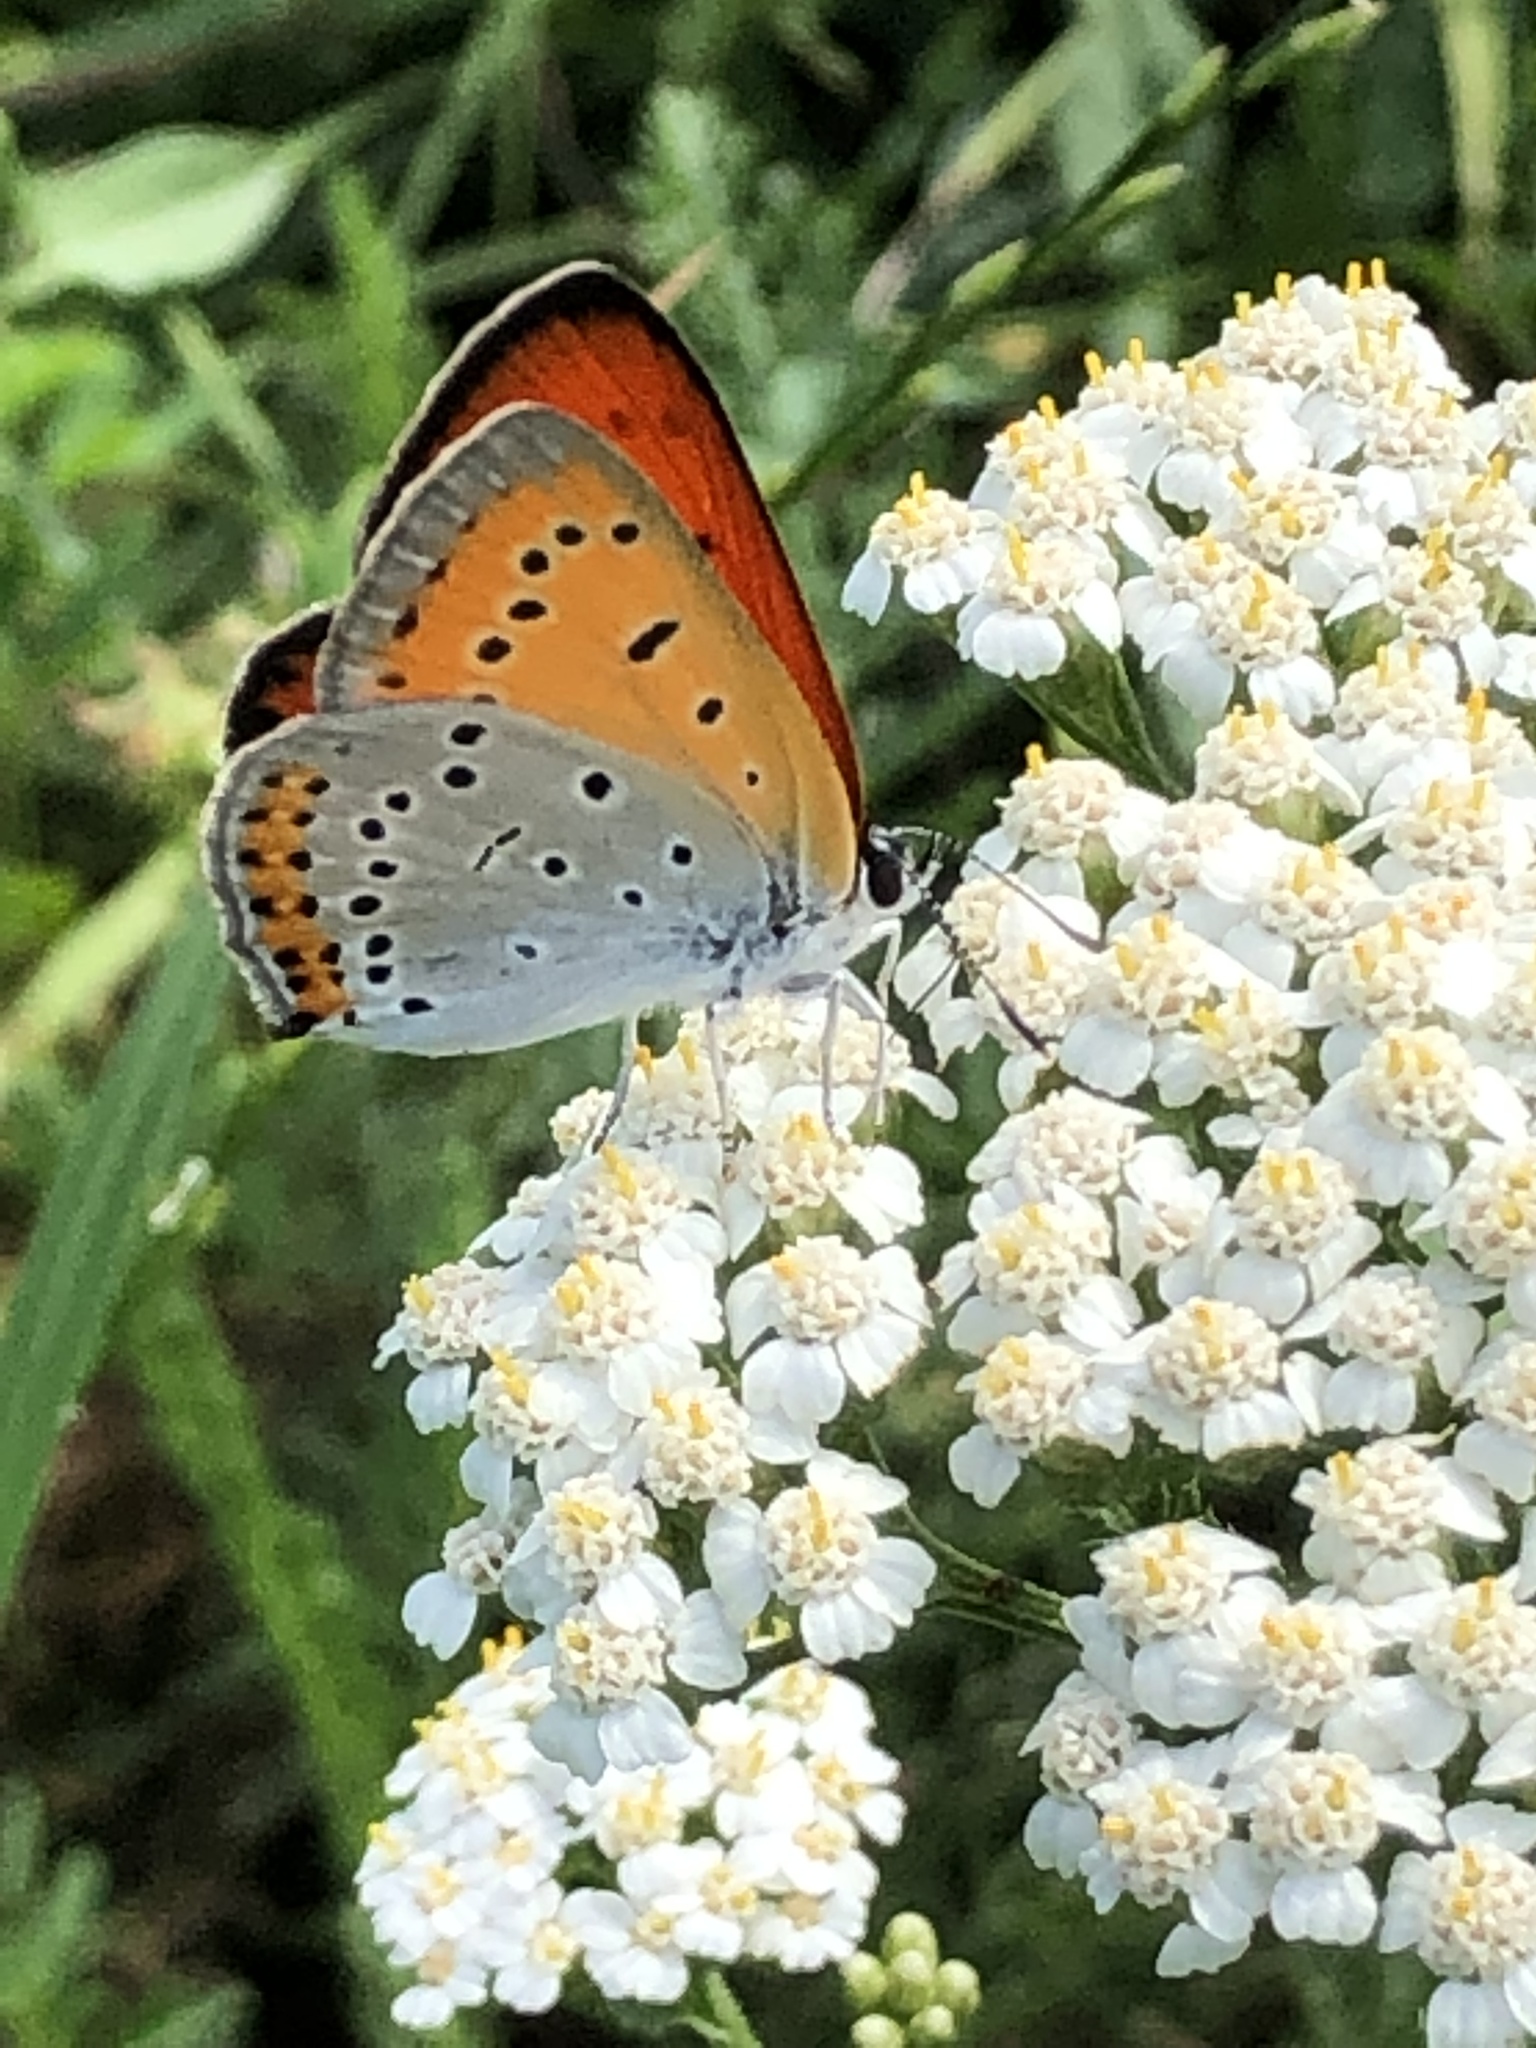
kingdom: Animalia
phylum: Arthropoda
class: Insecta
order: Lepidoptera
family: Lycaenidae
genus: Lycaena
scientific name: Lycaena dispar
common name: Large copper
